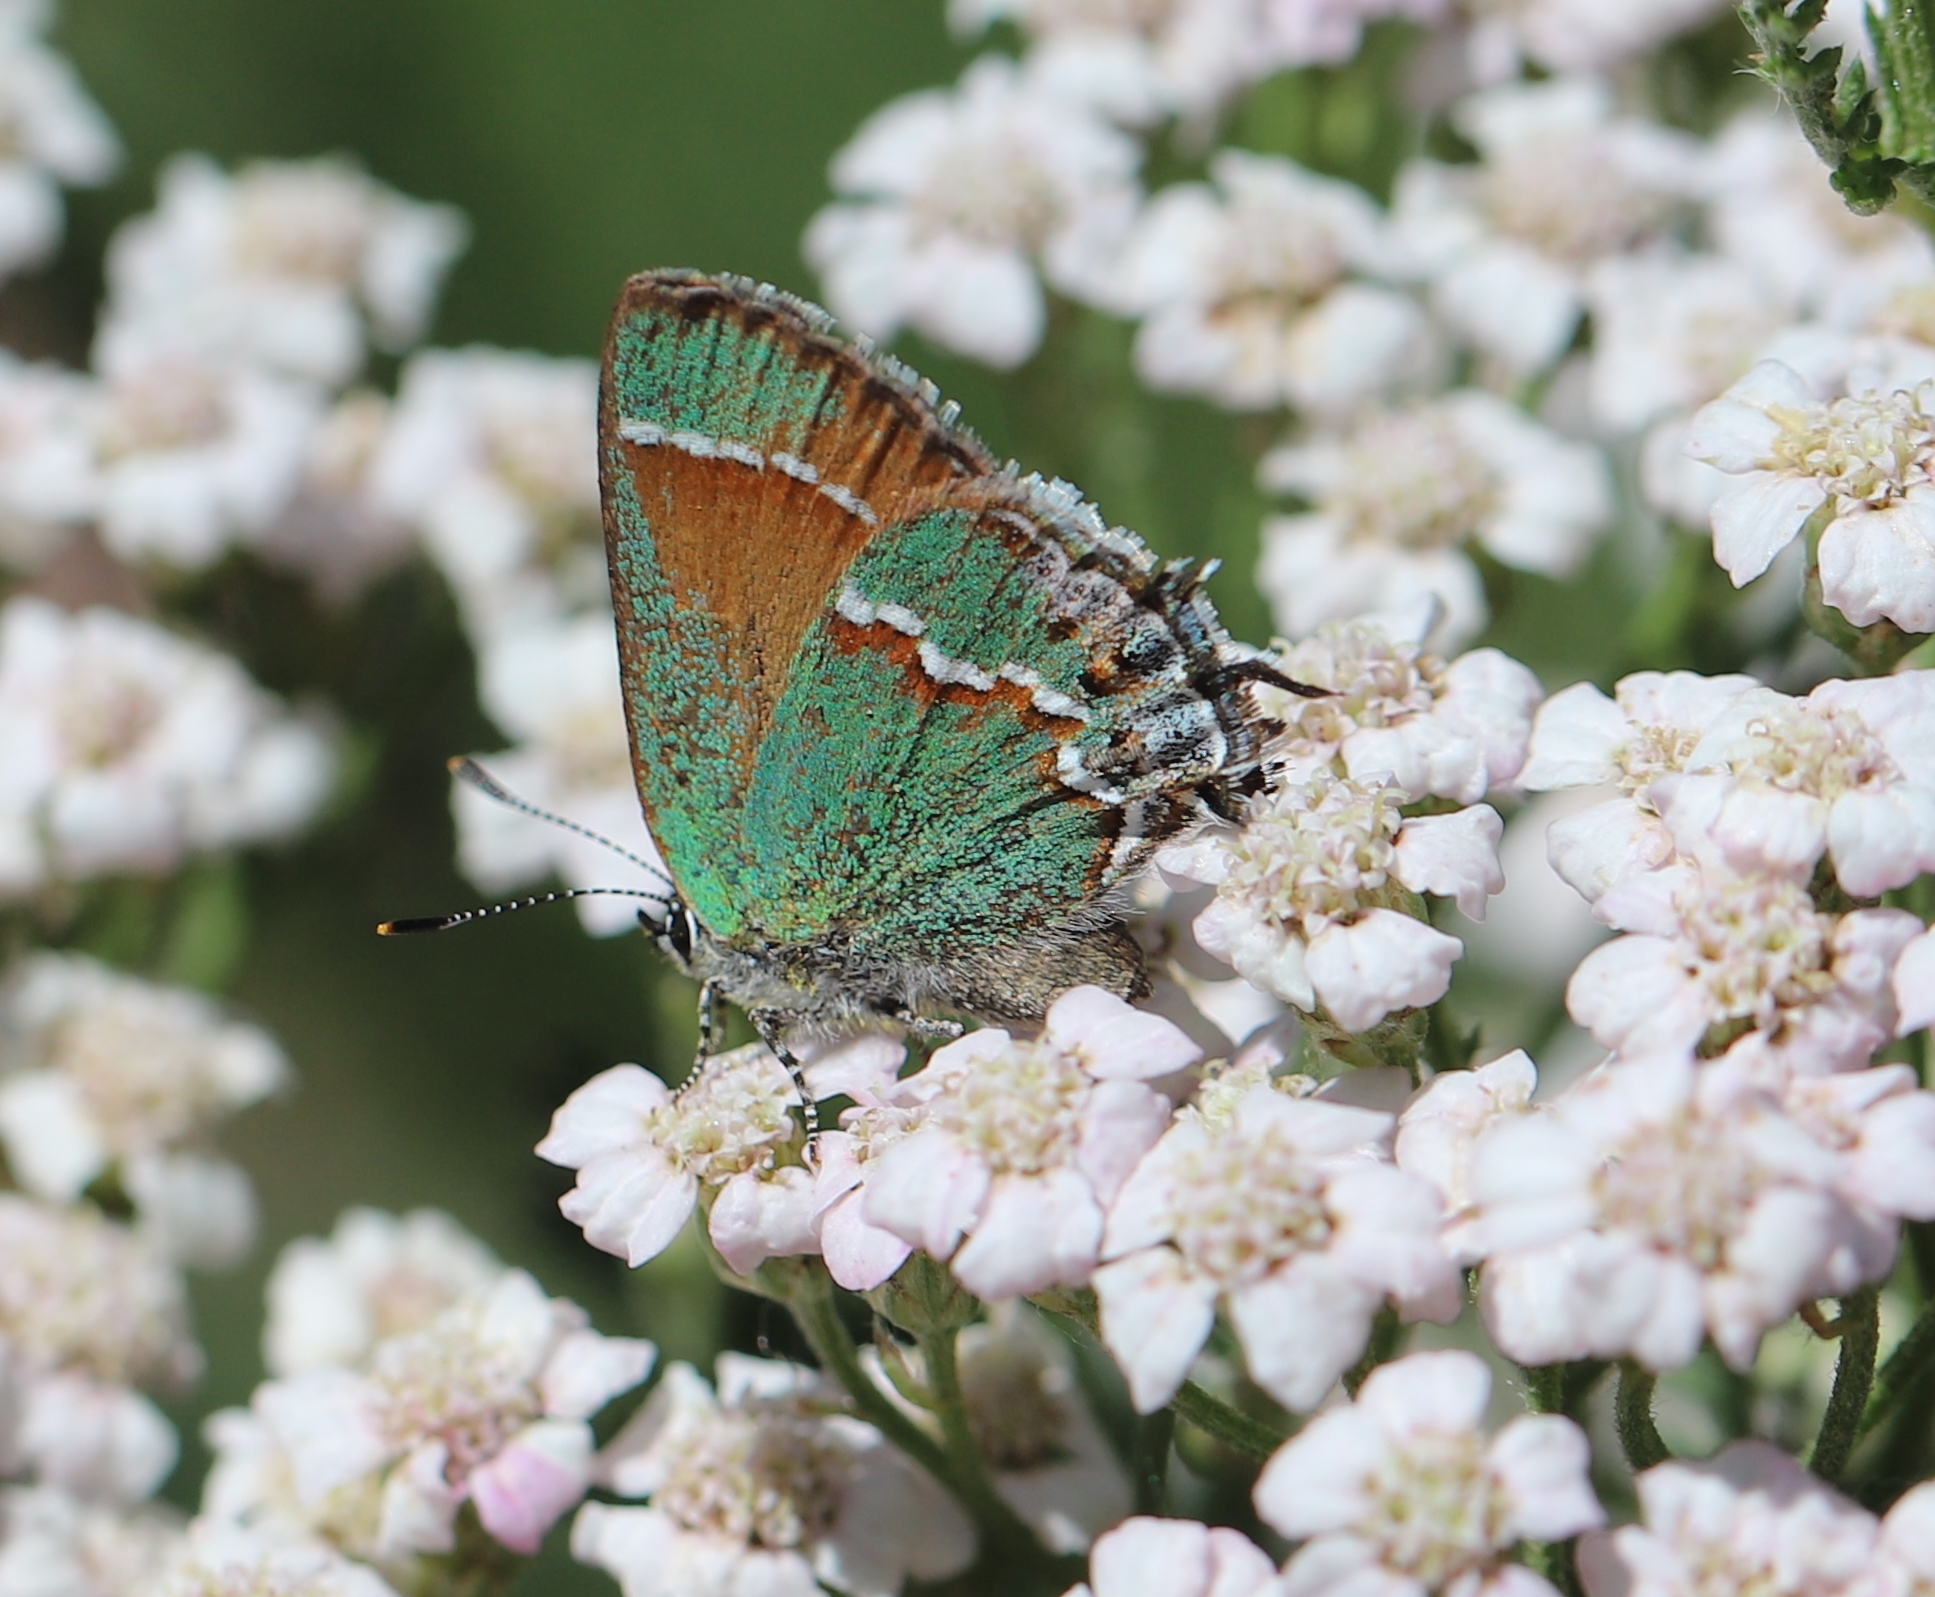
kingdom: Animalia
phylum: Arthropoda
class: Insecta
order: Lepidoptera
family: Lycaenidae
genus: Mitoura
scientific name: Mitoura gryneus
